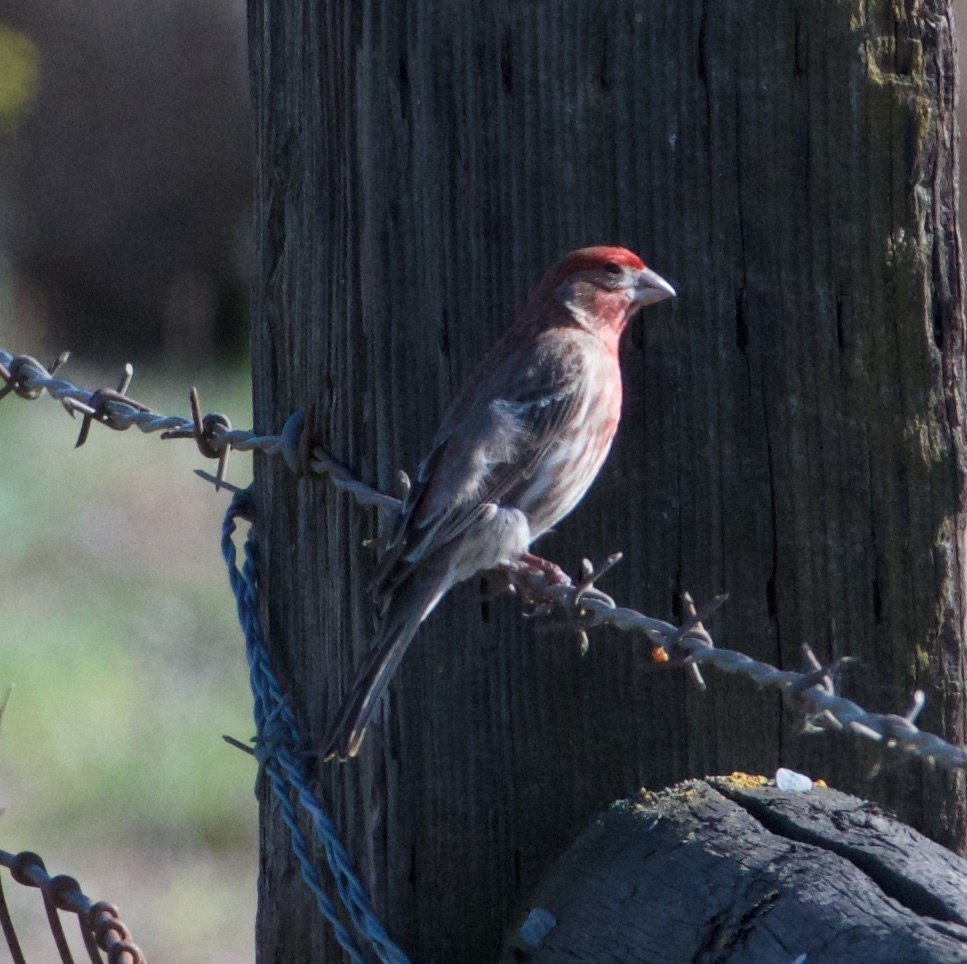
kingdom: Animalia
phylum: Chordata
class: Aves
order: Passeriformes
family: Fringillidae
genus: Haemorhous
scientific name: Haemorhous mexicanus
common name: House finch
